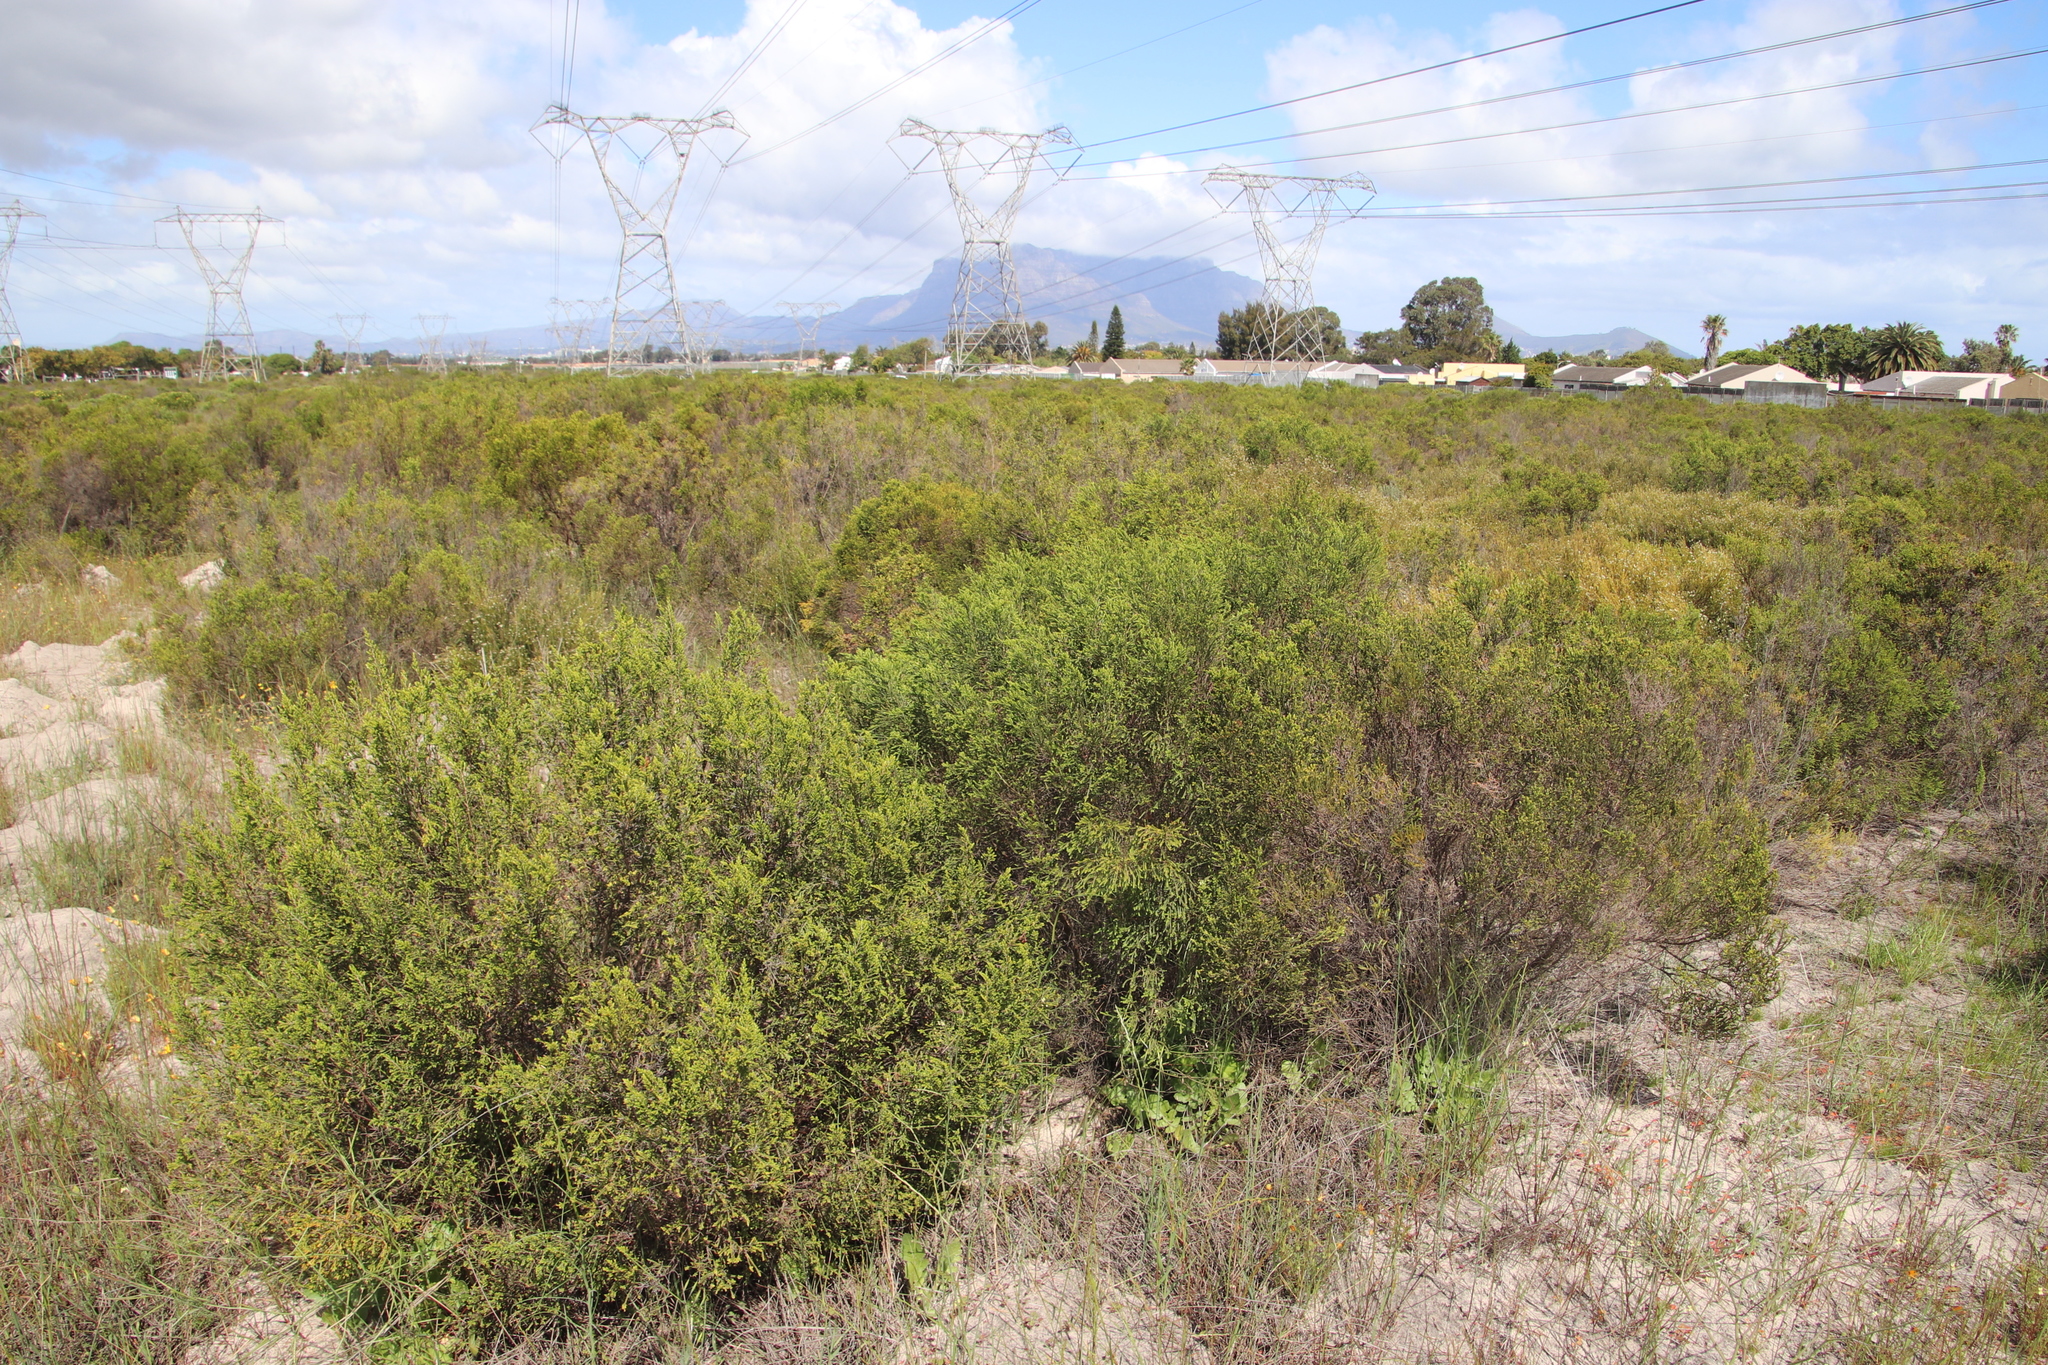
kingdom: Plantae
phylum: Tracheophyta
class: Magnoliopsida
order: Malvales
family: Thymelaeaceae
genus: Passerina
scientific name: Passerina corymbosa
